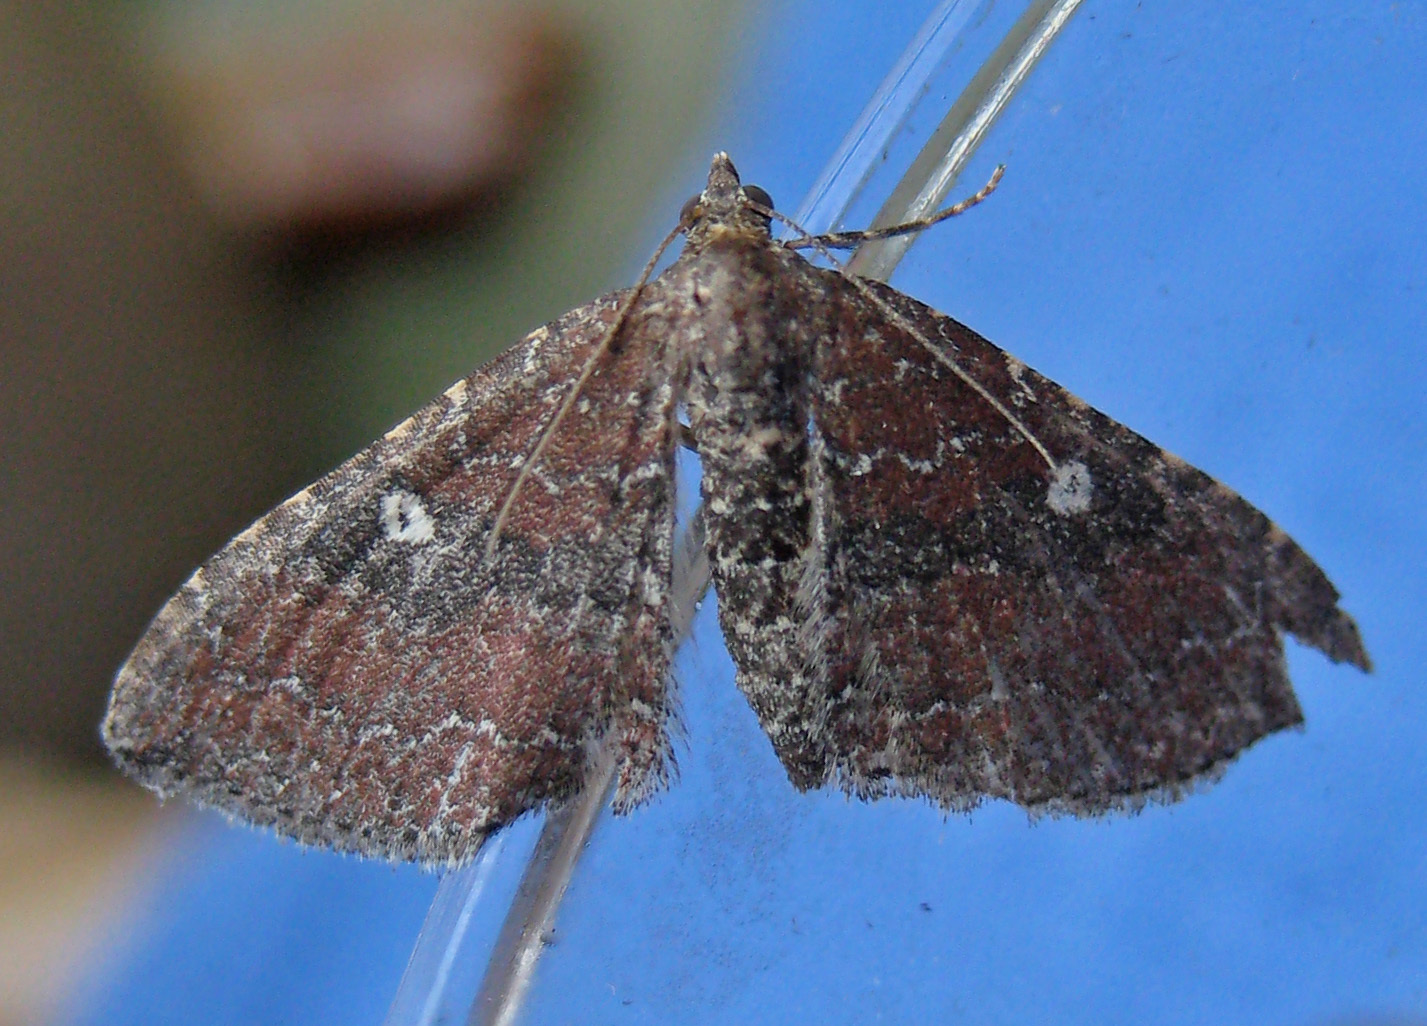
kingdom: Animalia
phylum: Arthropoda
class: Insecta
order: Lepidoptera
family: Geometridae
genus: Orthonama
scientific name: Orthonama obstipata
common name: The gem
